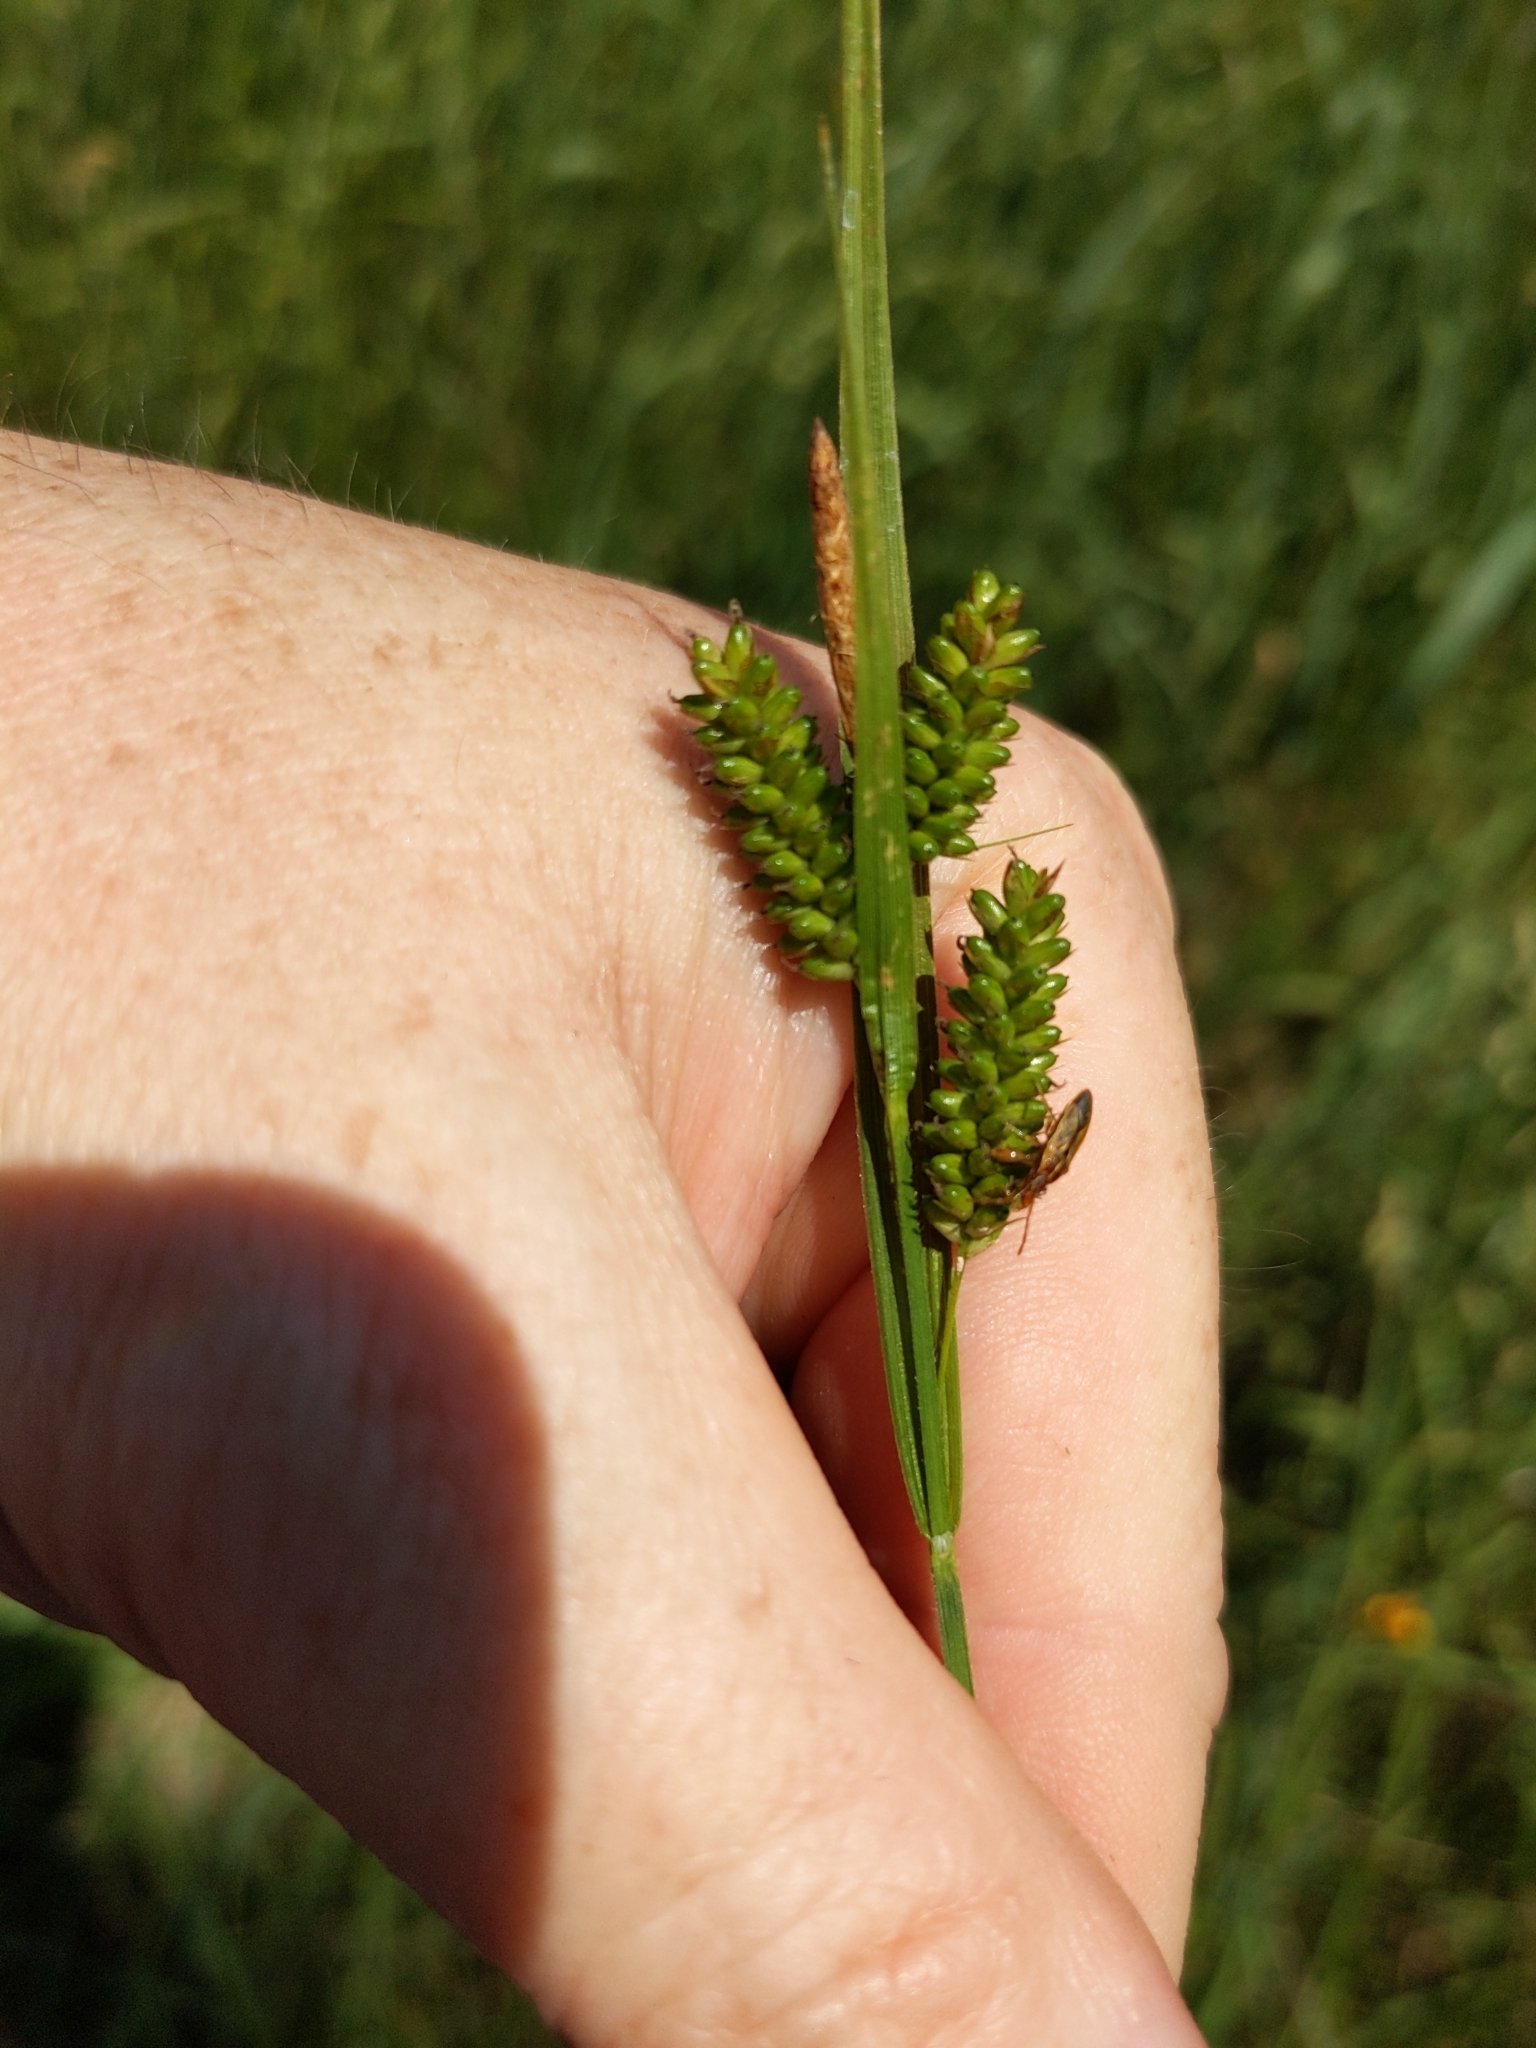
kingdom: Plantae
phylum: Tracheophyta
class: Liliopsida
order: Poales
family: Cyperaceae
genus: Carex
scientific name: Carex pallescens
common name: Pale sedge
